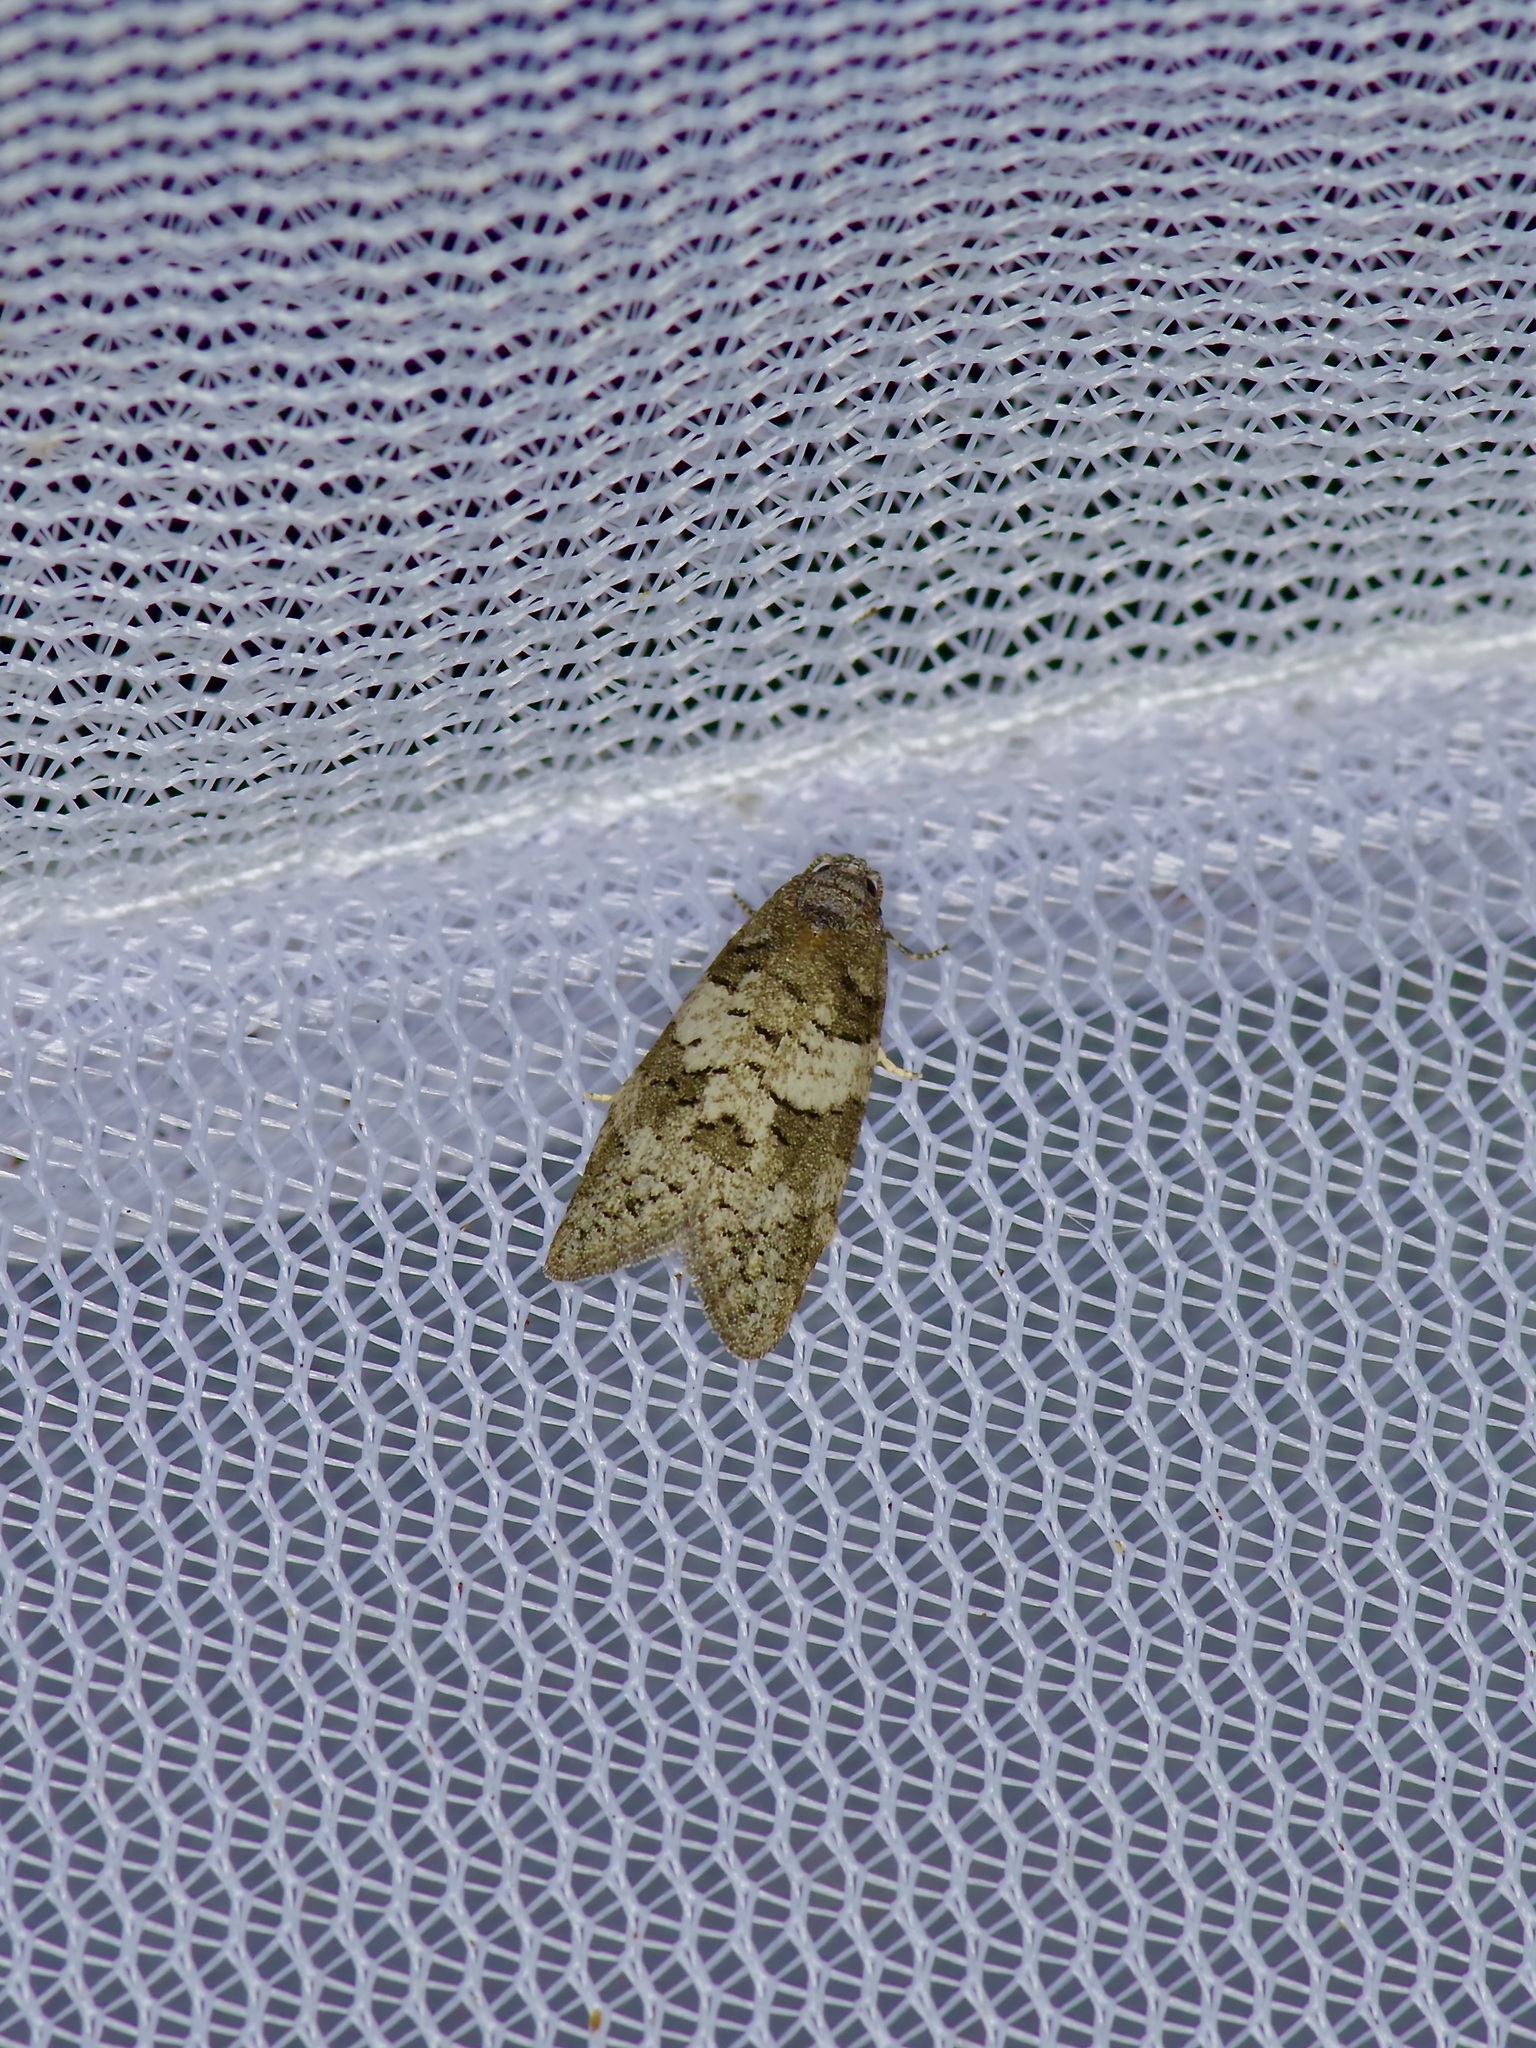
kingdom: Animalia
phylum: Arthropoda
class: Insecta
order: Lepidoptera
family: Tortricidae
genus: Decodes
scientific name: Decodes basiplagana
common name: Gray-marked tortricid
